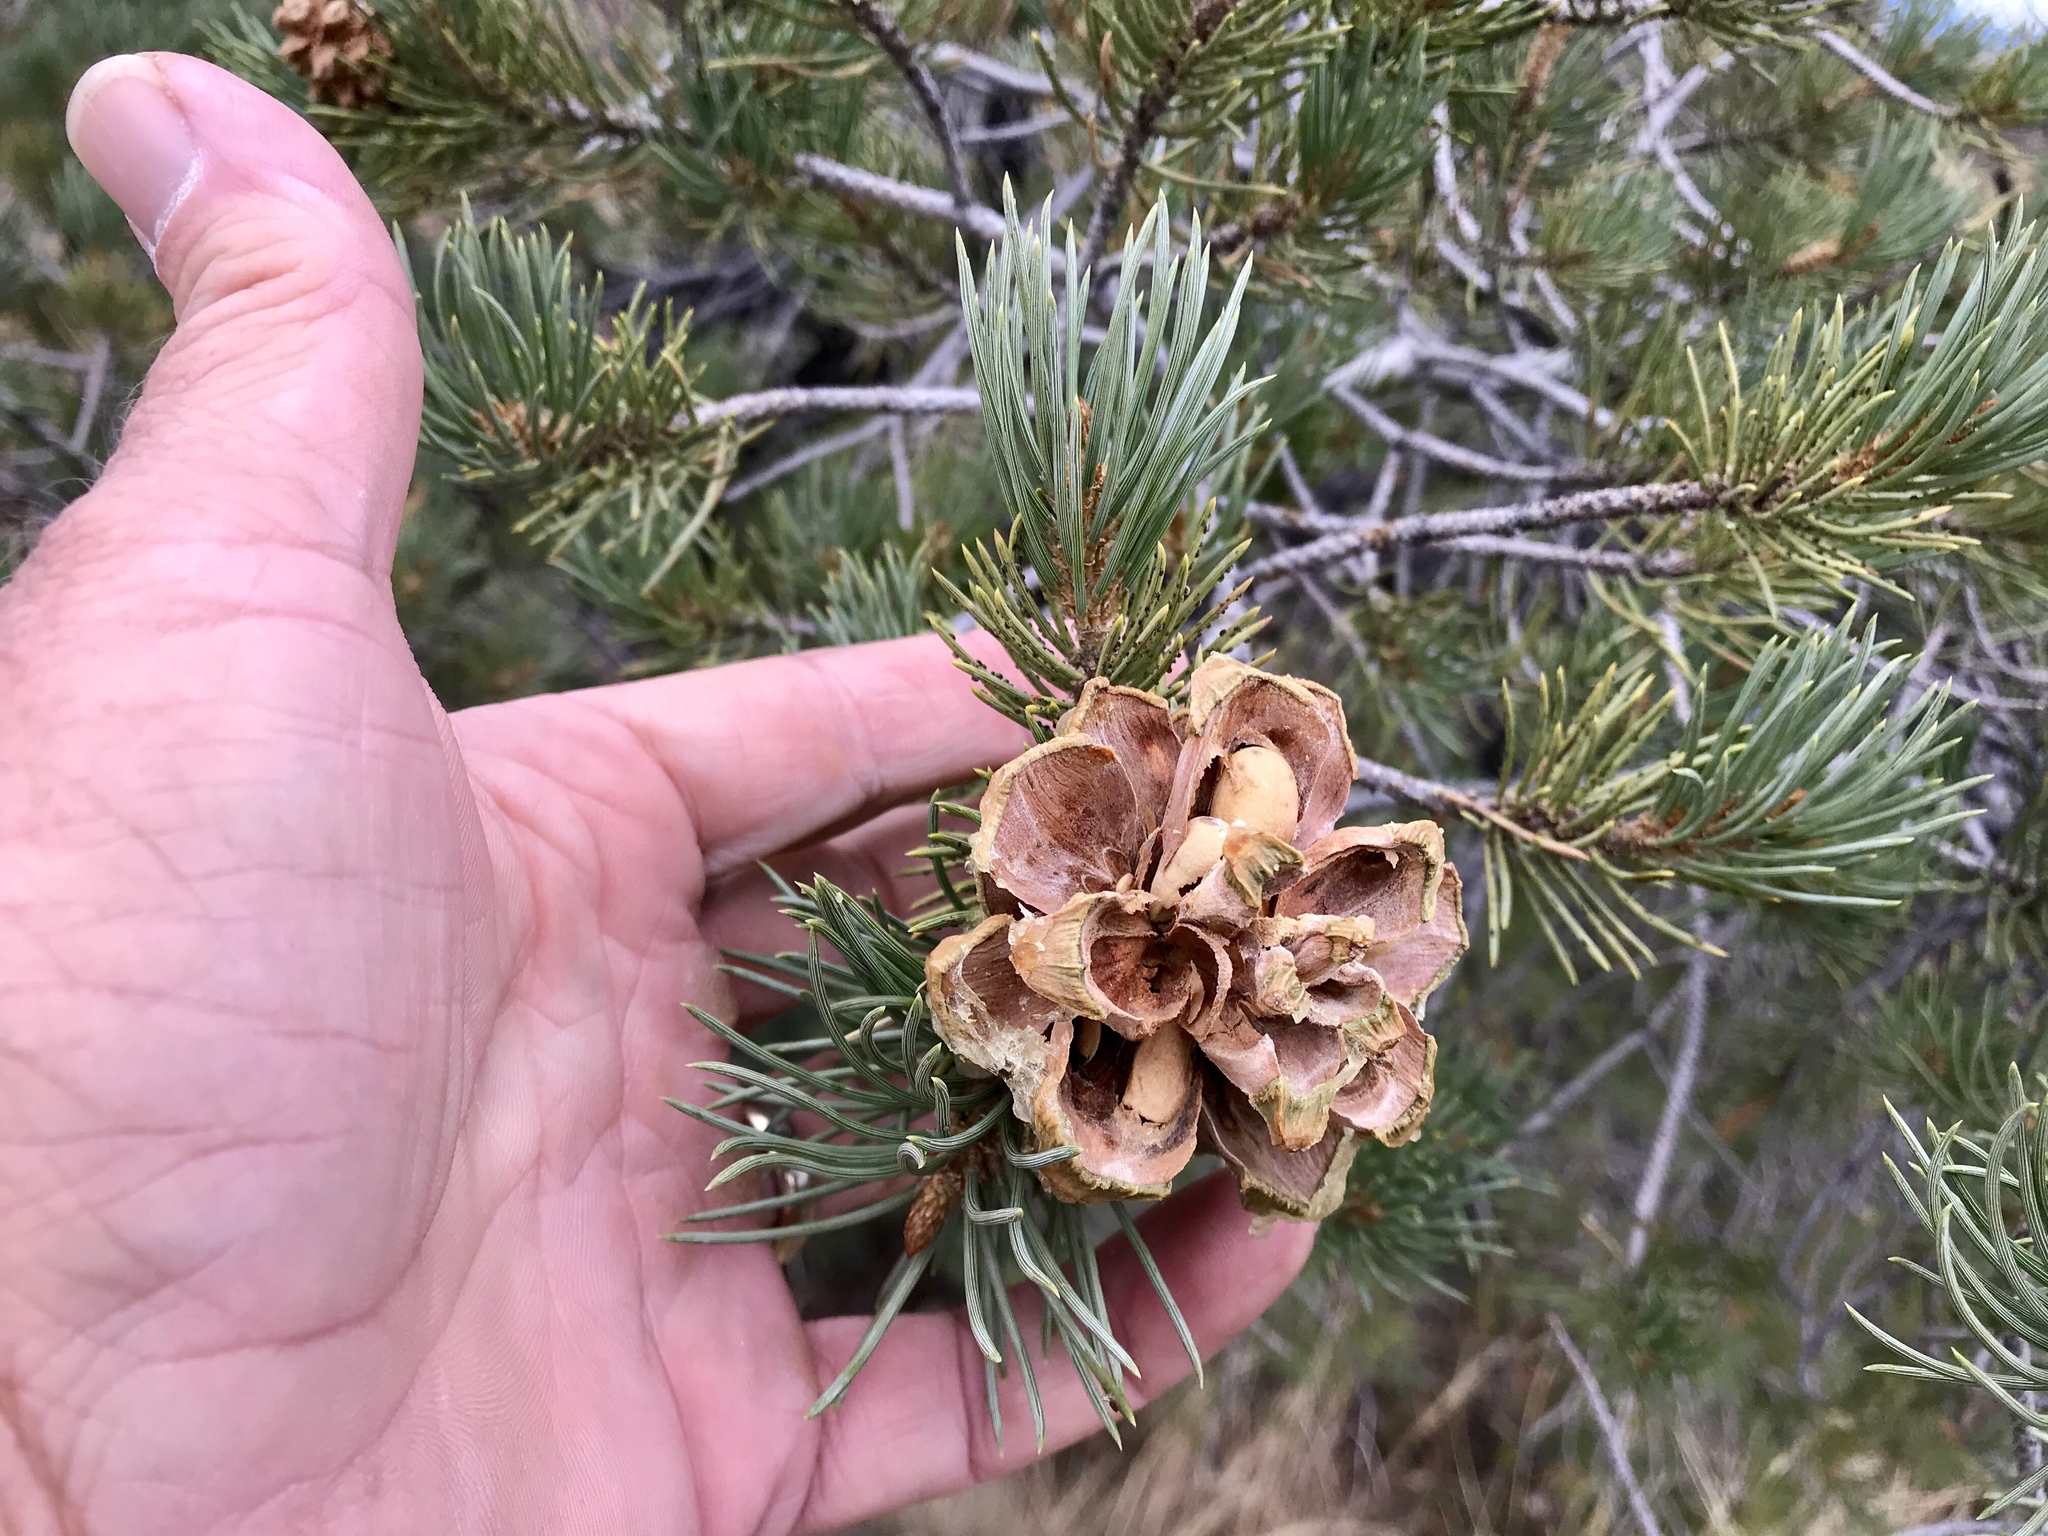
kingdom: Plantae
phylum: Tracheophyta
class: Pinopsida
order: Pinales
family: Pinaceae
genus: Pinus
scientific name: Pinus monophylla
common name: One-leaved nut pine
